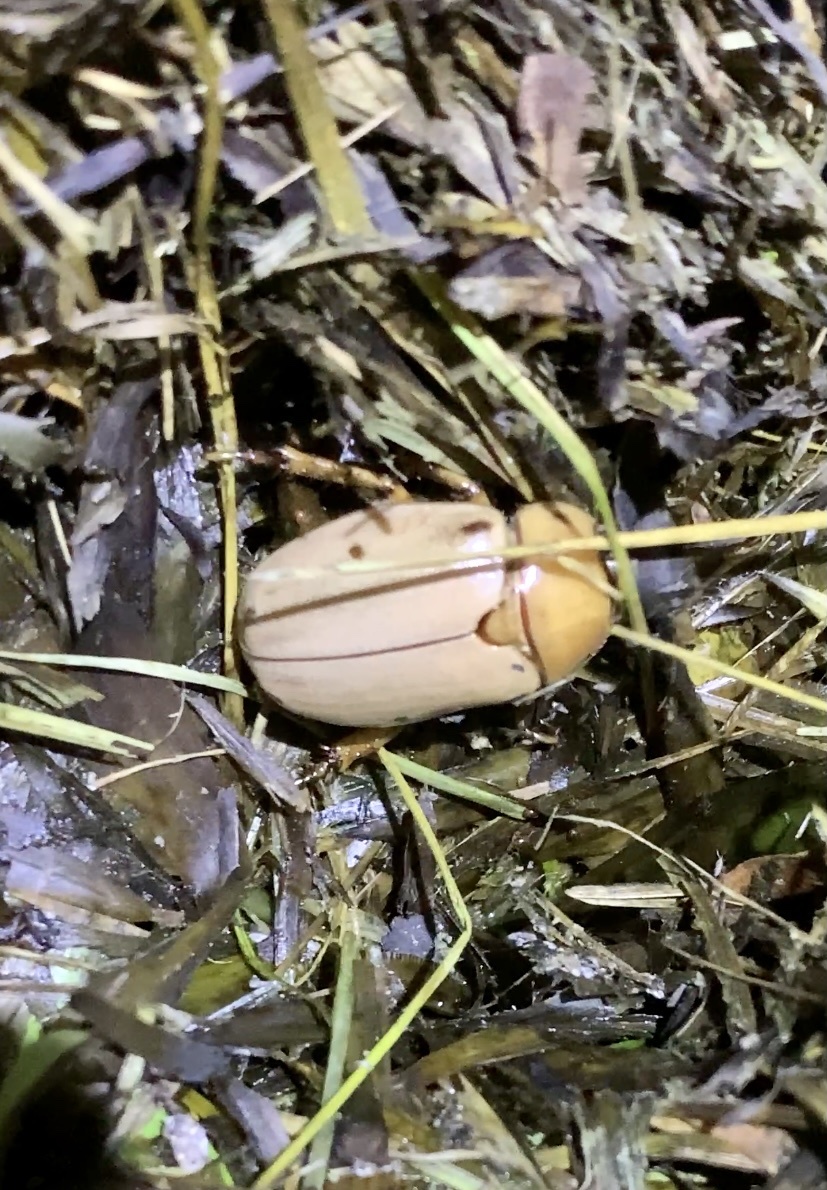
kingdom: Animalia
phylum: Arthropoda
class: Insecta
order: Coleoptera
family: Scarabaeidae
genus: Pelidnota
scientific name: Pelidnota punctata
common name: Grapevine beetle
